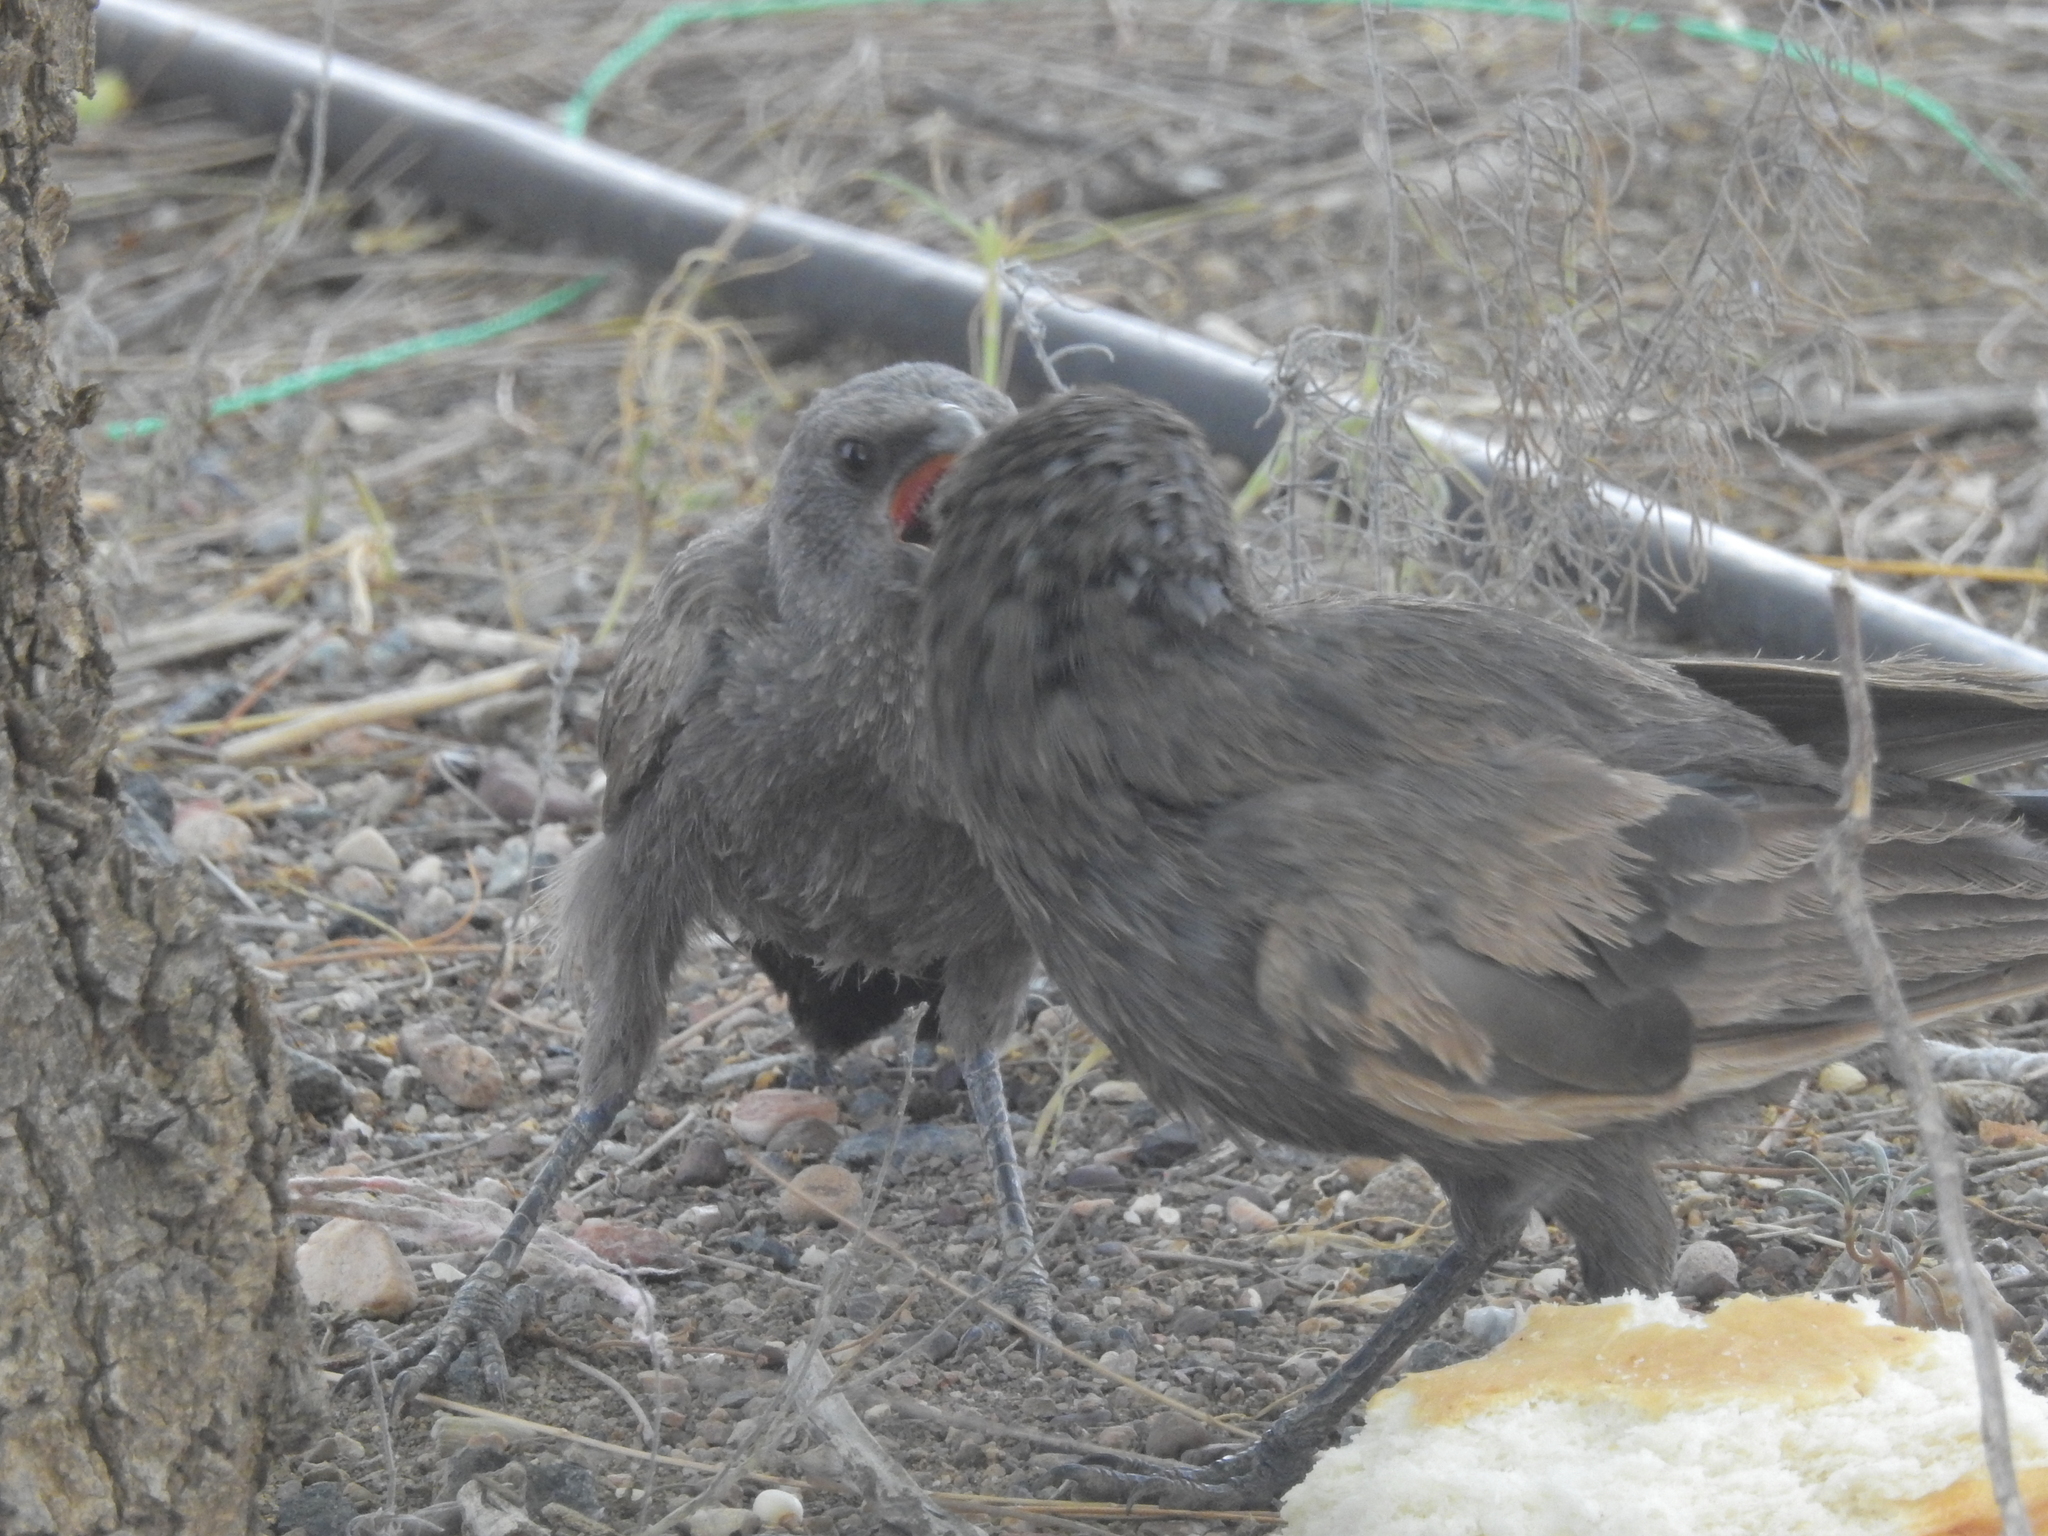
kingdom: Animalia
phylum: Chordata
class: Aves
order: Passeriformes
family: Corcoracidae
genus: Struthidea
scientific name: Struthidea cinerea
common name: Apostlebird
